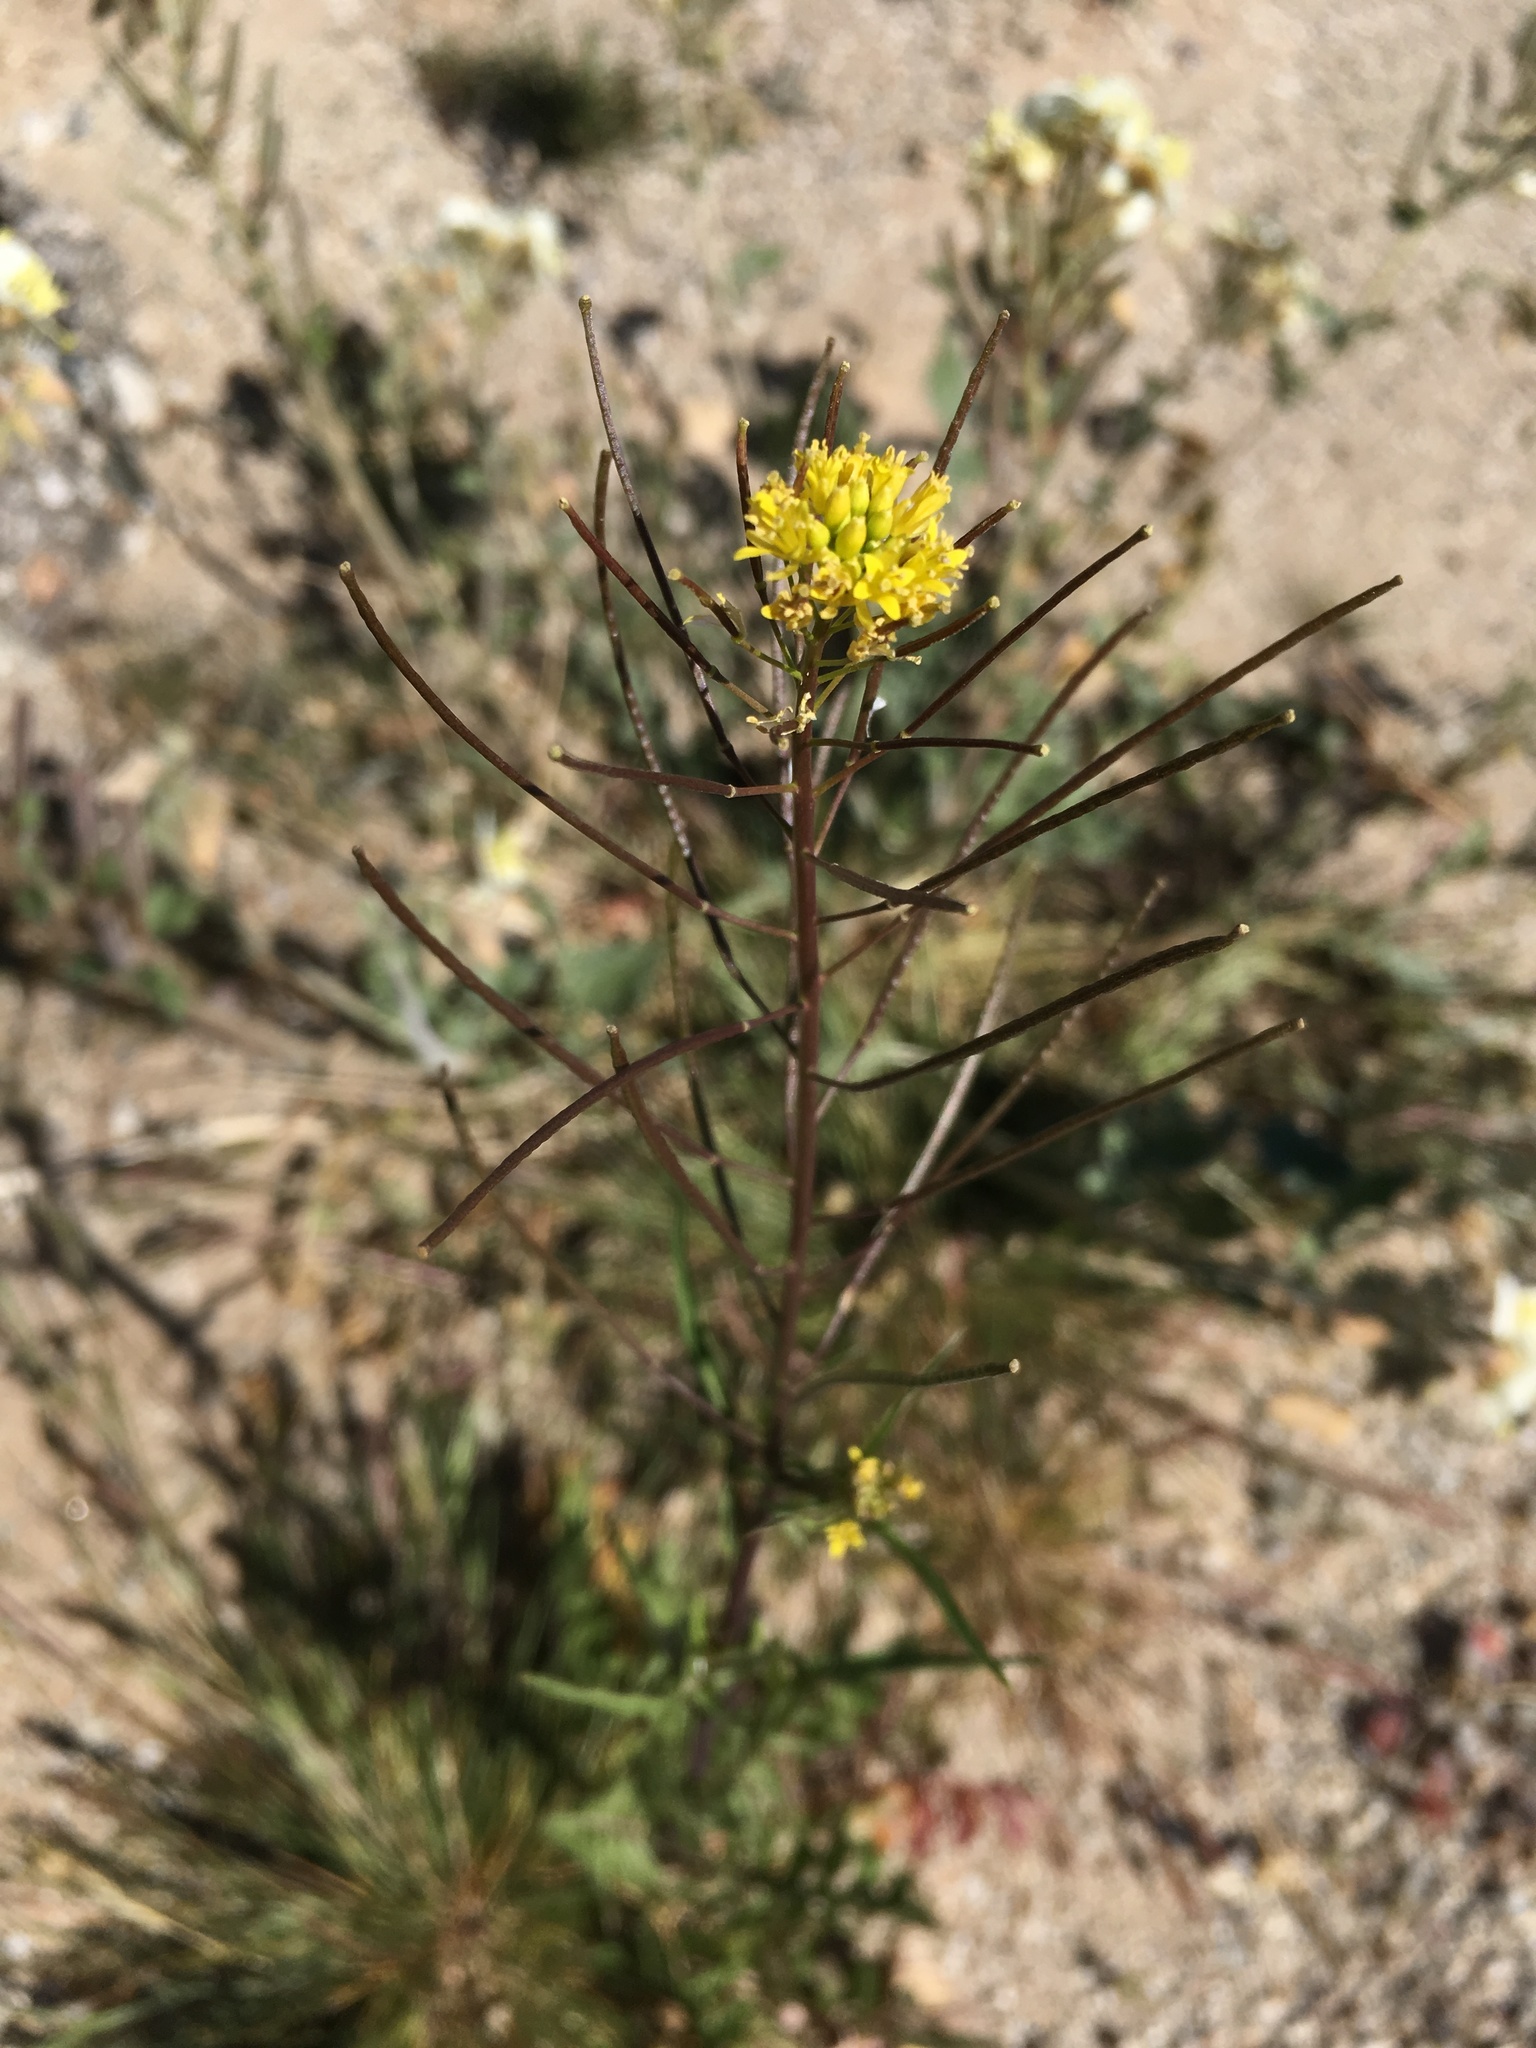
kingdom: Plantae
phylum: Tracheophyta
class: Magnoliopsida
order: Brassicales
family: Brassicaceae
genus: Sisymbrium
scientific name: Sisymbrium irio
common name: London rocket
